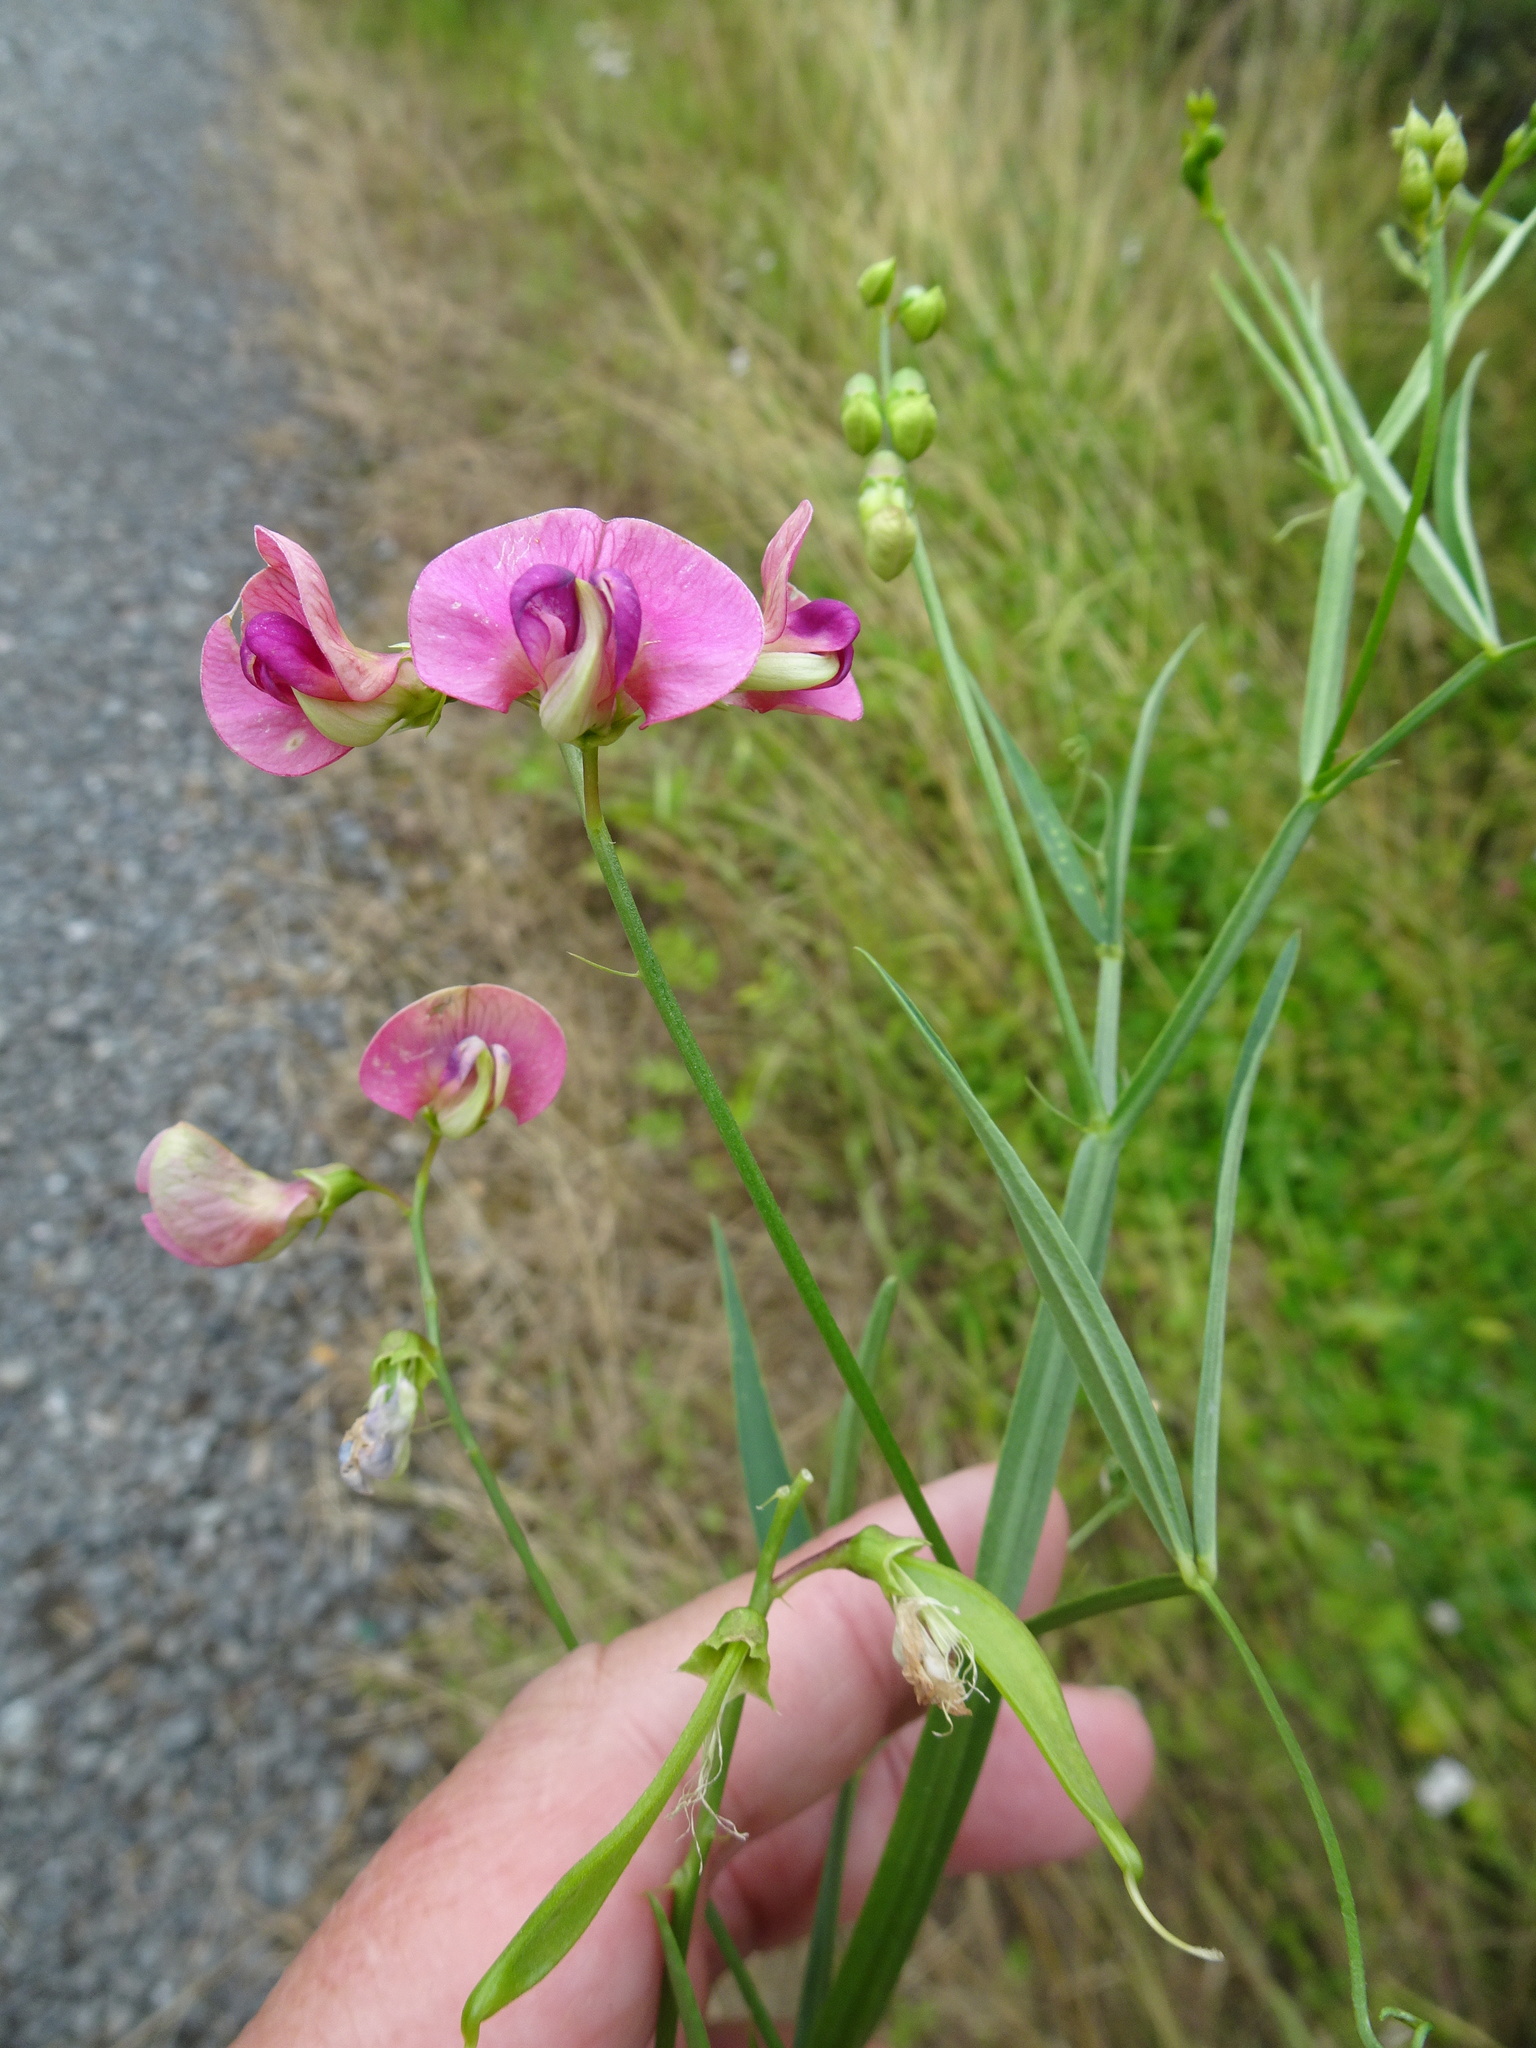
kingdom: Plantae
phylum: Tracheophyta
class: Magnoliopsida
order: Fabales
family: Fabaceae
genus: Lathyrus
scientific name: Lathyrus sylvestris
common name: Flat pea
